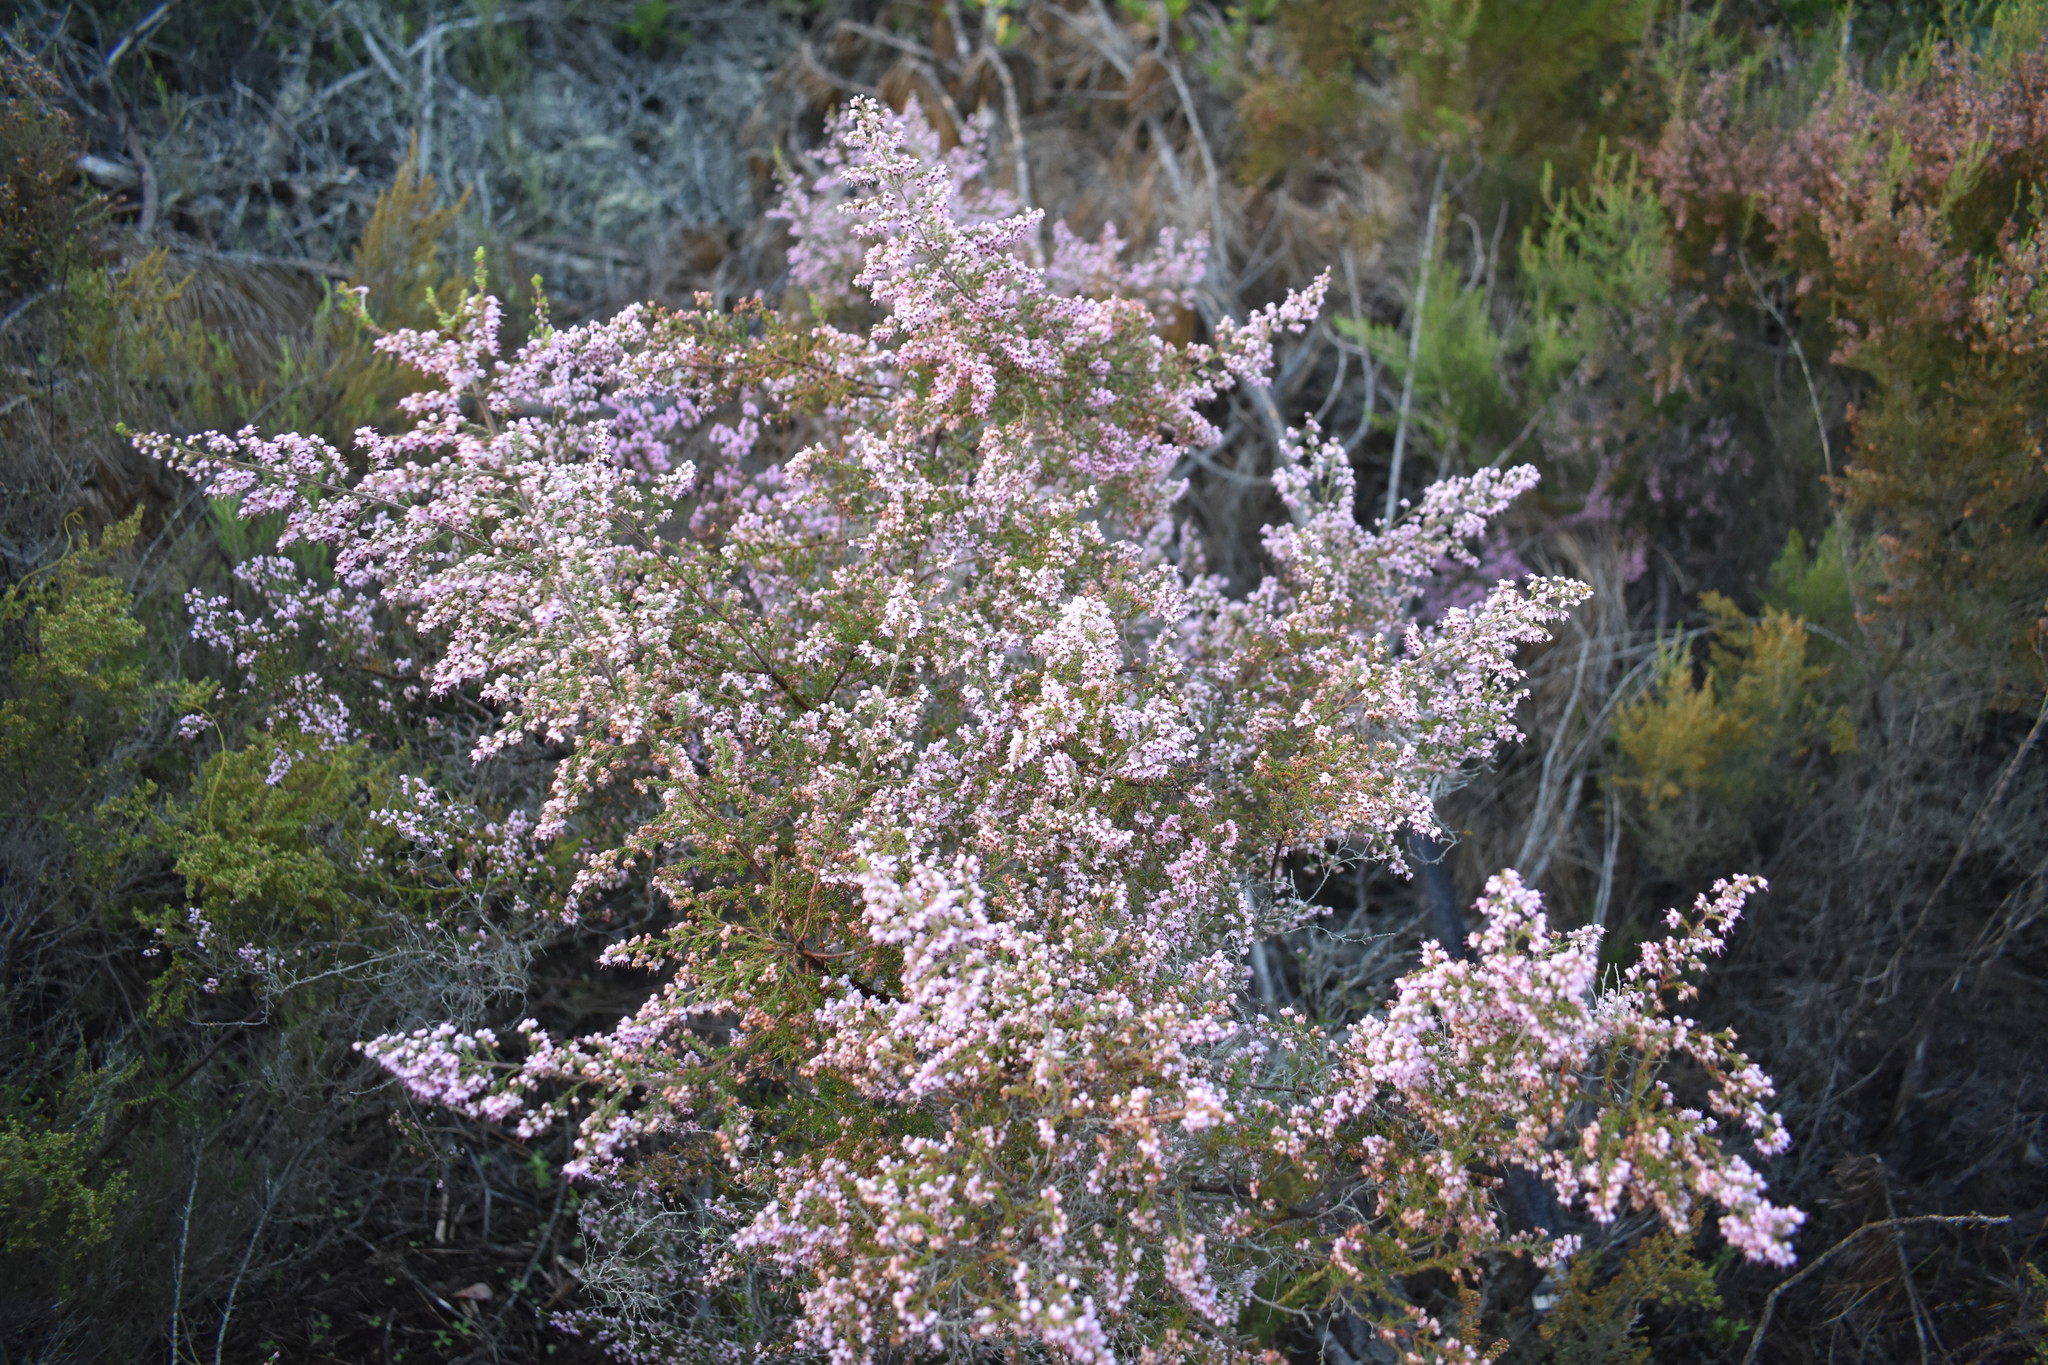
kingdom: Plantae
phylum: Tracheophyta
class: Magnoliopsida
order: Ericales
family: Ericaceae
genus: Erica
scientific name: Erica sparsa
